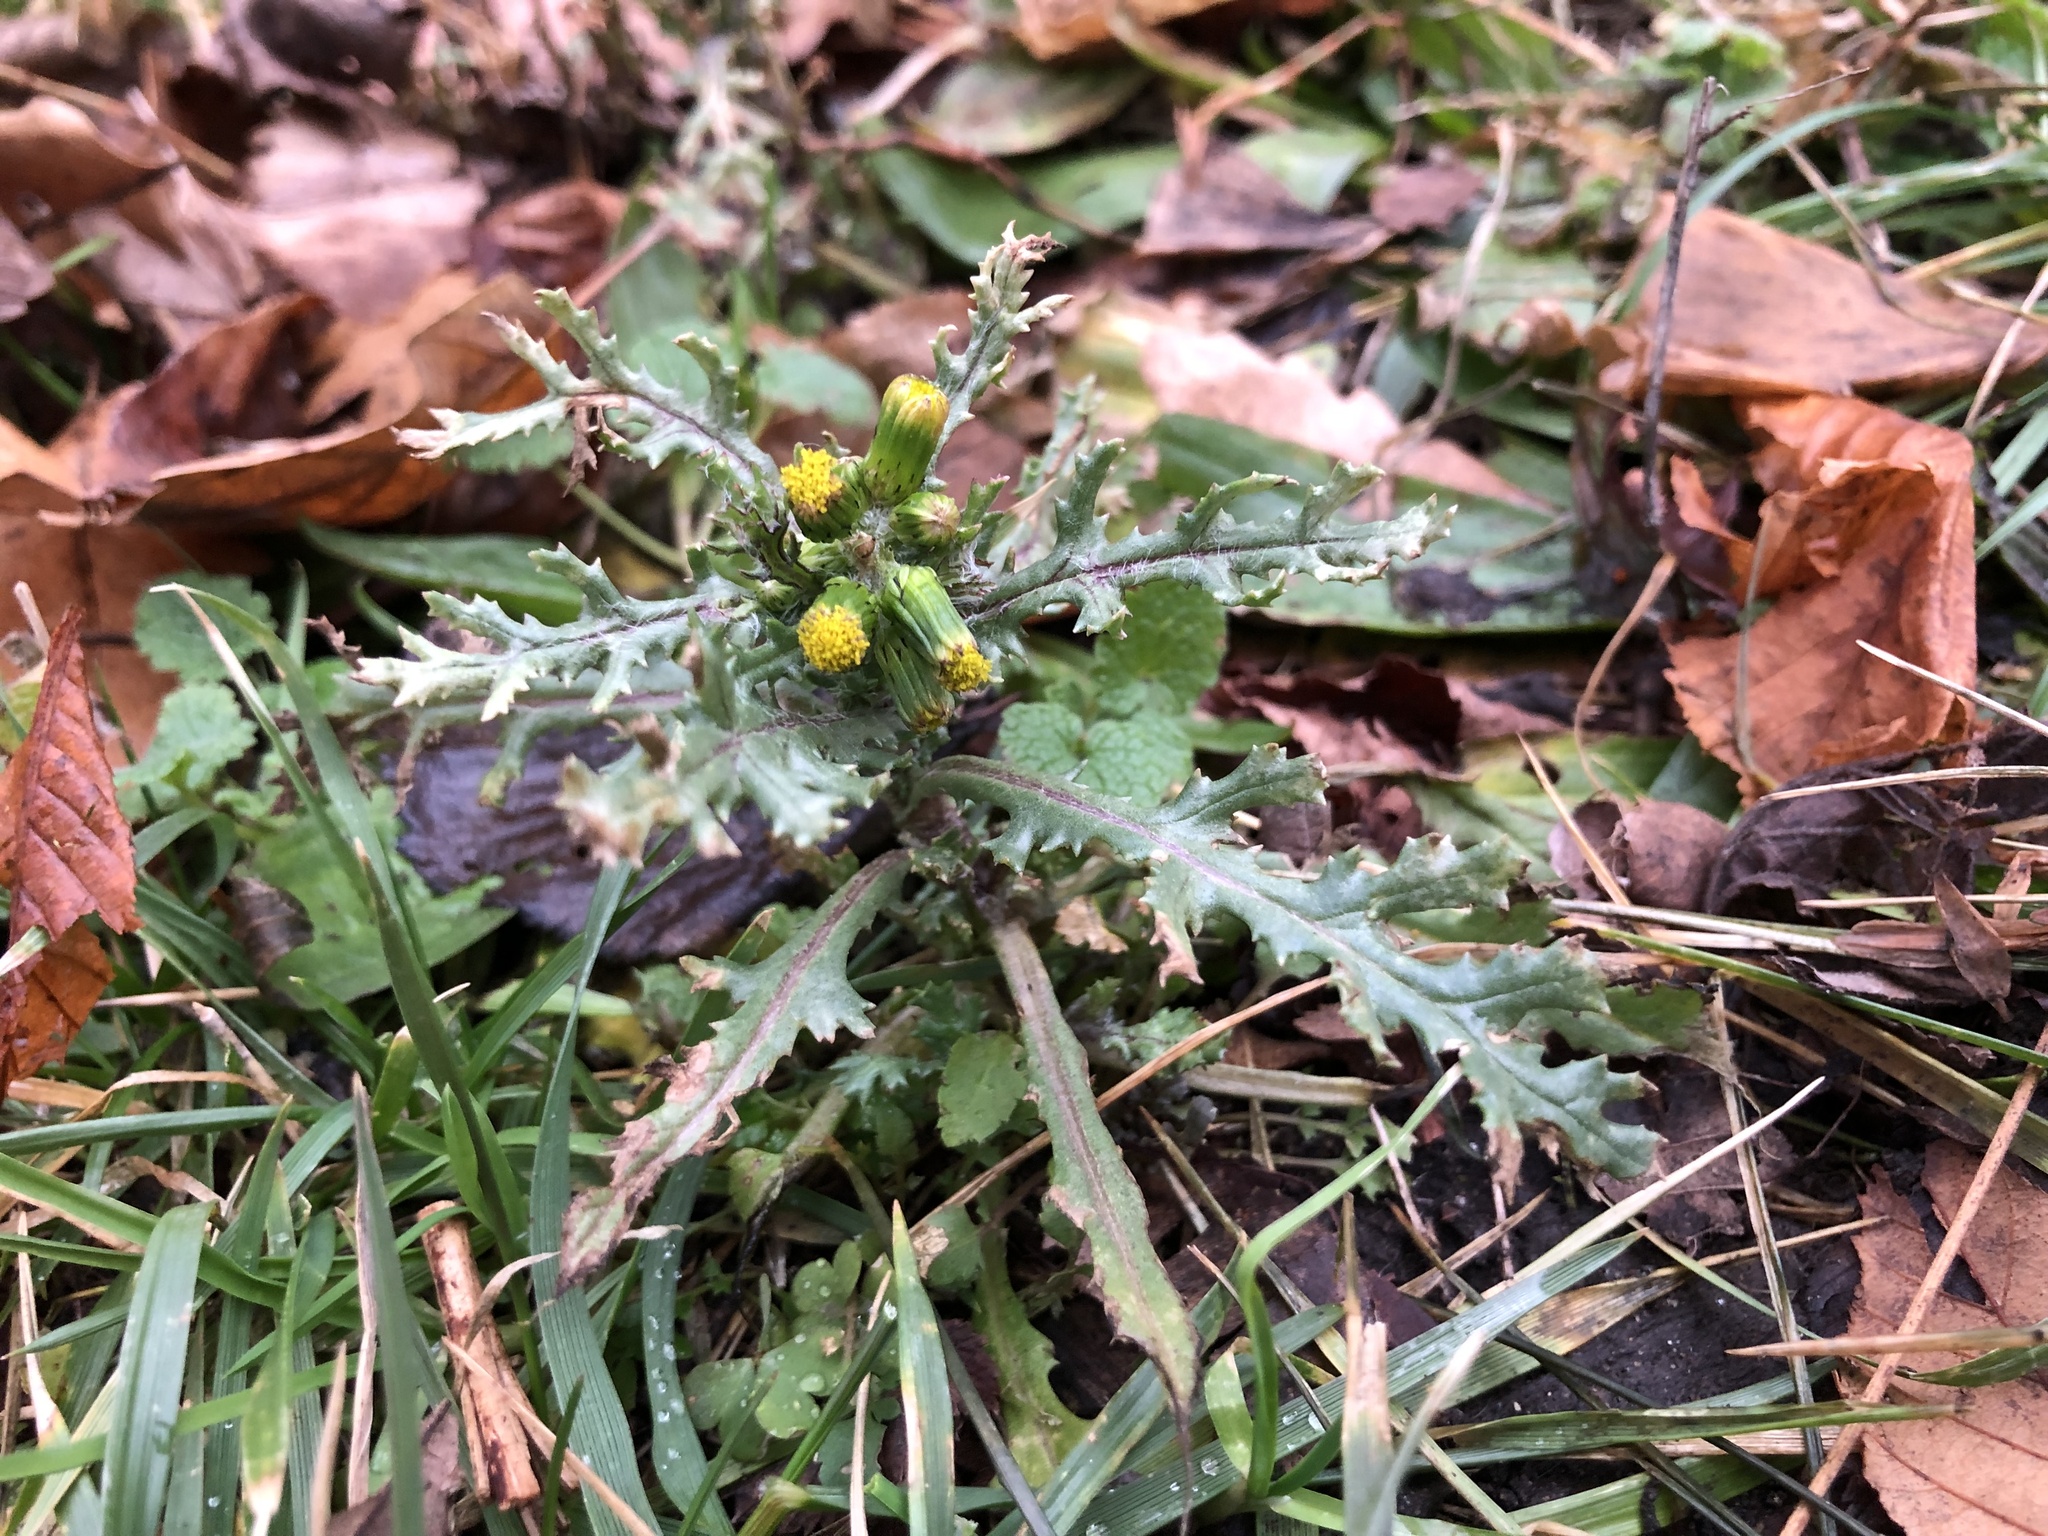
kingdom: Plantae
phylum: Tracheophyta
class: Magnoliopsida
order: Asterales
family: Asteraceae
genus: Senecio
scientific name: Senecio vulgaris
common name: Old-man-in-the-spring
